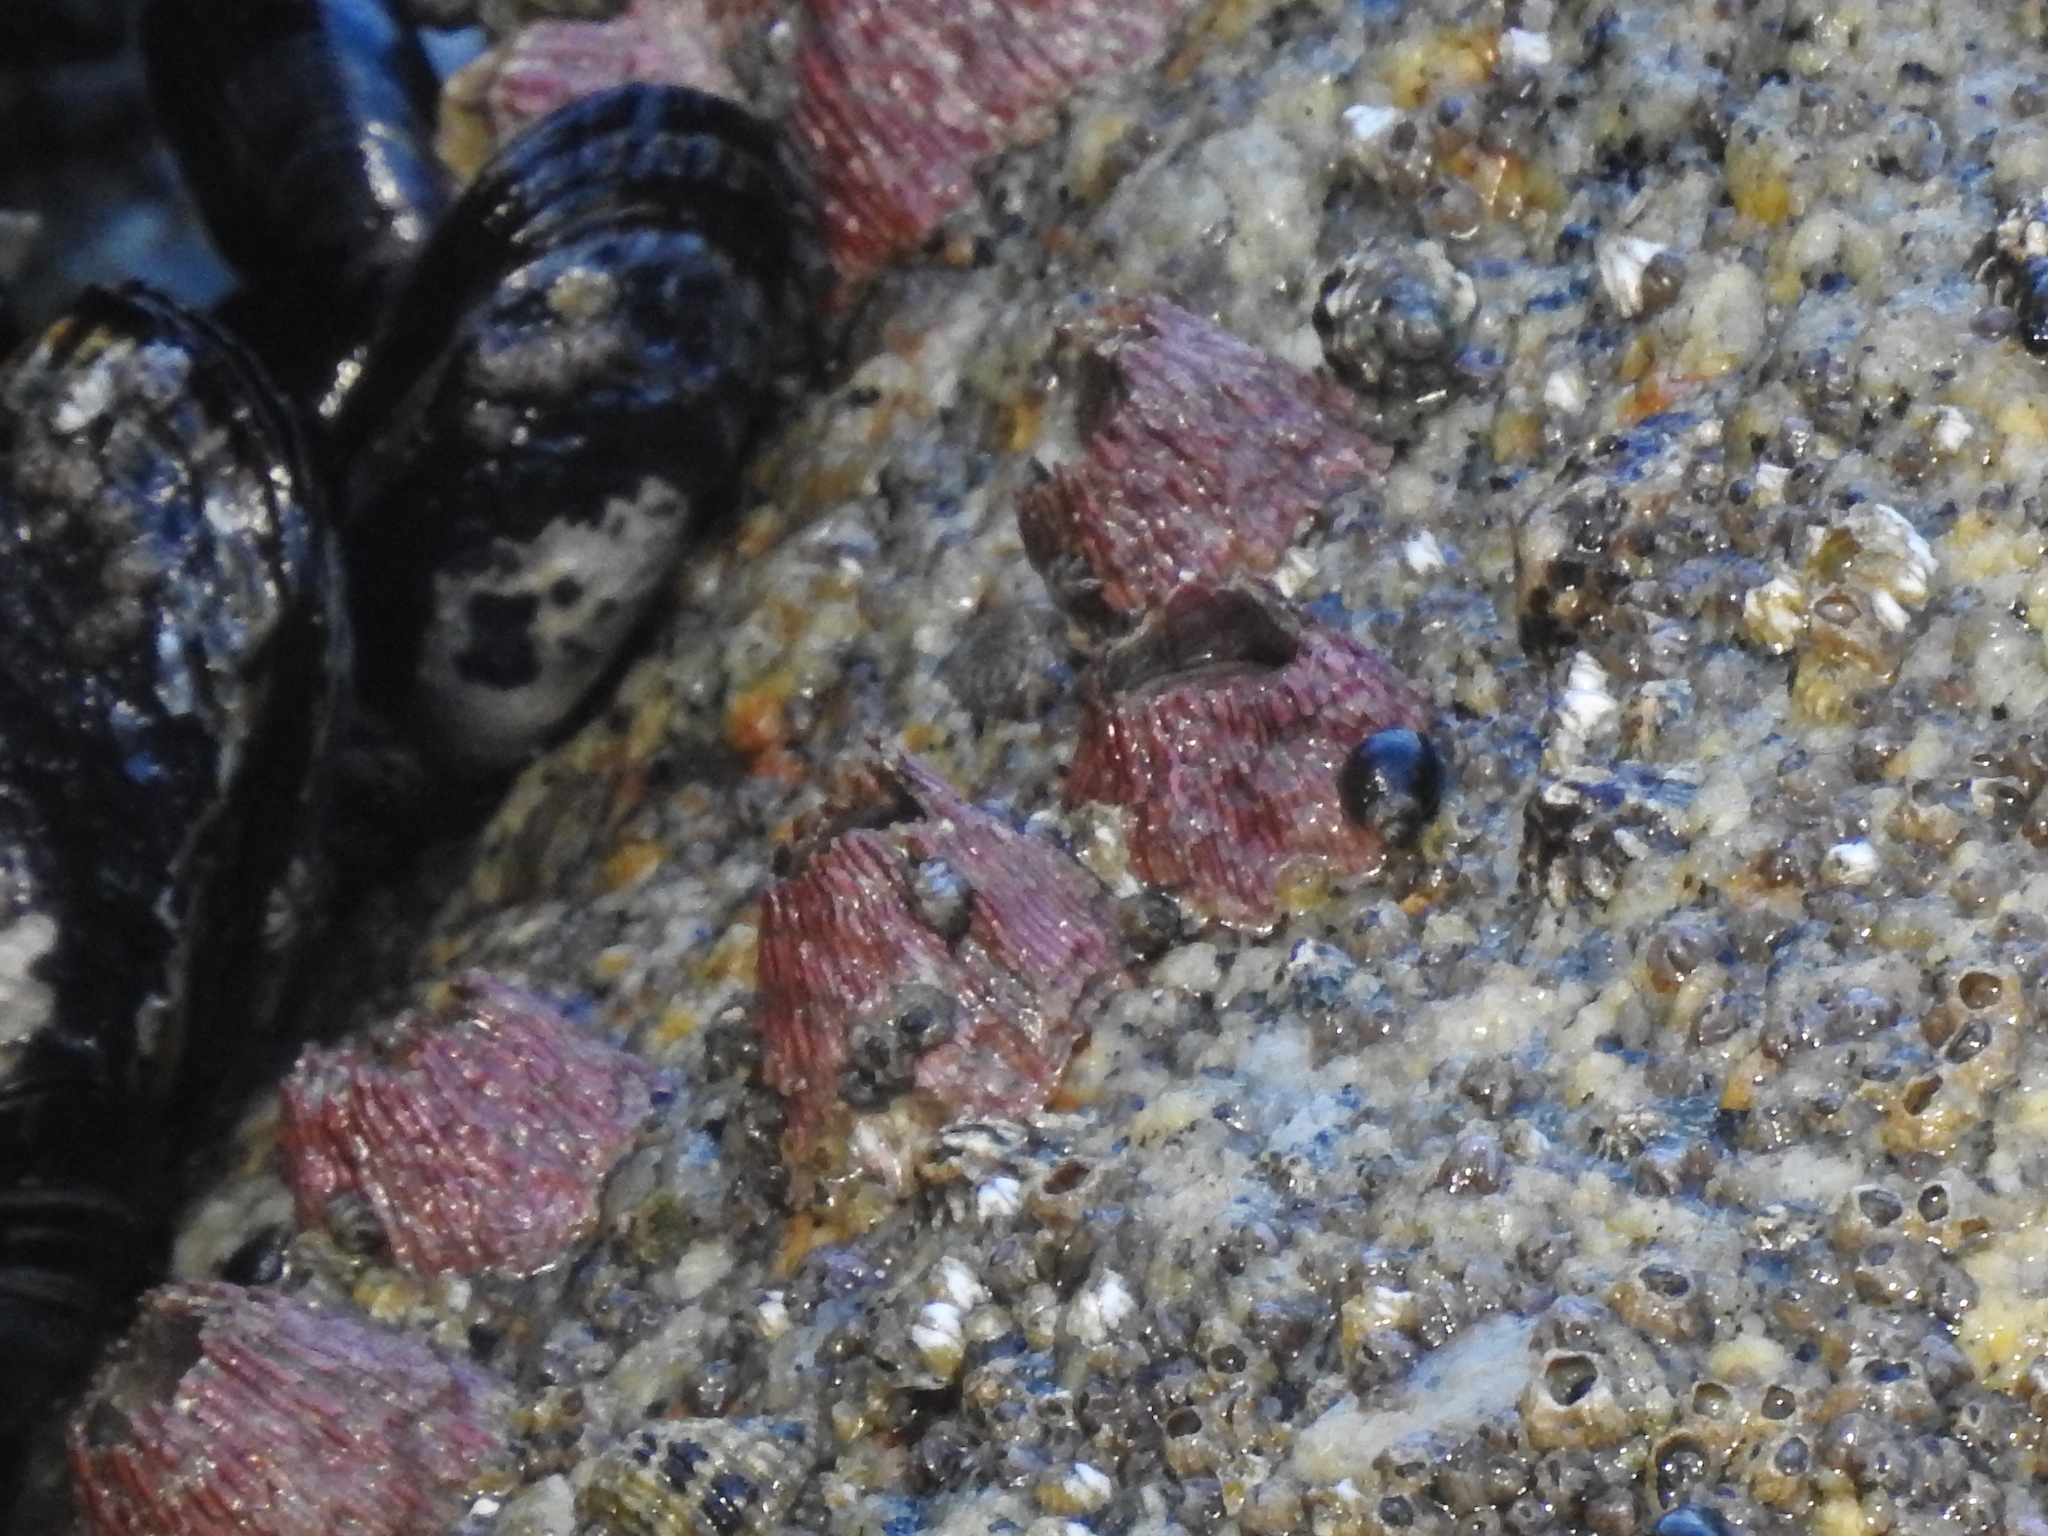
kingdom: Animalia
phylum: Arthropoda
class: Maxillopoda
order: Sessilia
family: Tetraclitidae
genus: Tetraclita
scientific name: Tetraclita rubescens
